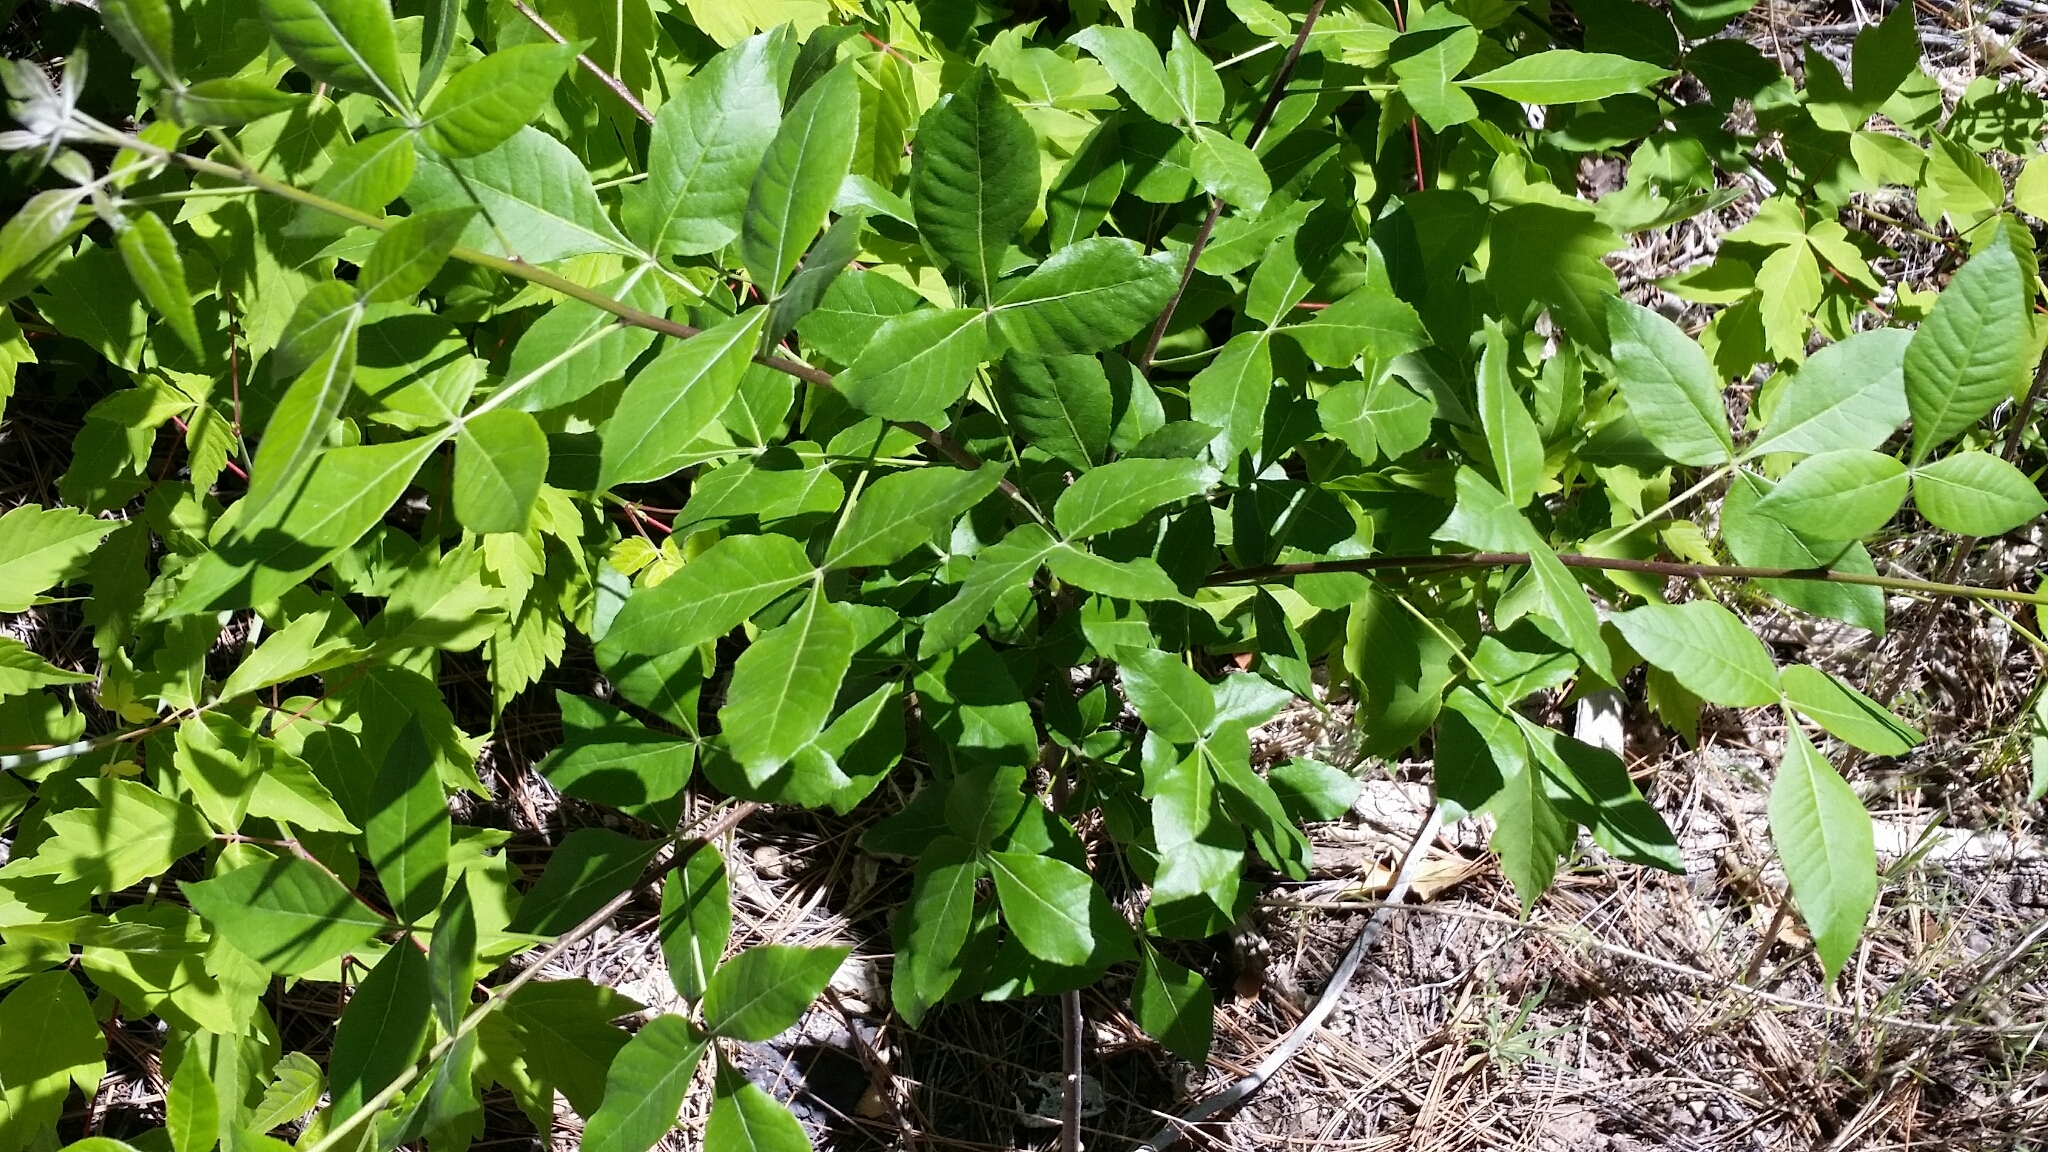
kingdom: Plantae
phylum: Tracheophyta
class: Magnoliopsida
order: Sapindales
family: Rutaceae
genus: Ptelea
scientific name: Ptelea trifoliata
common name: Common hop-tree
